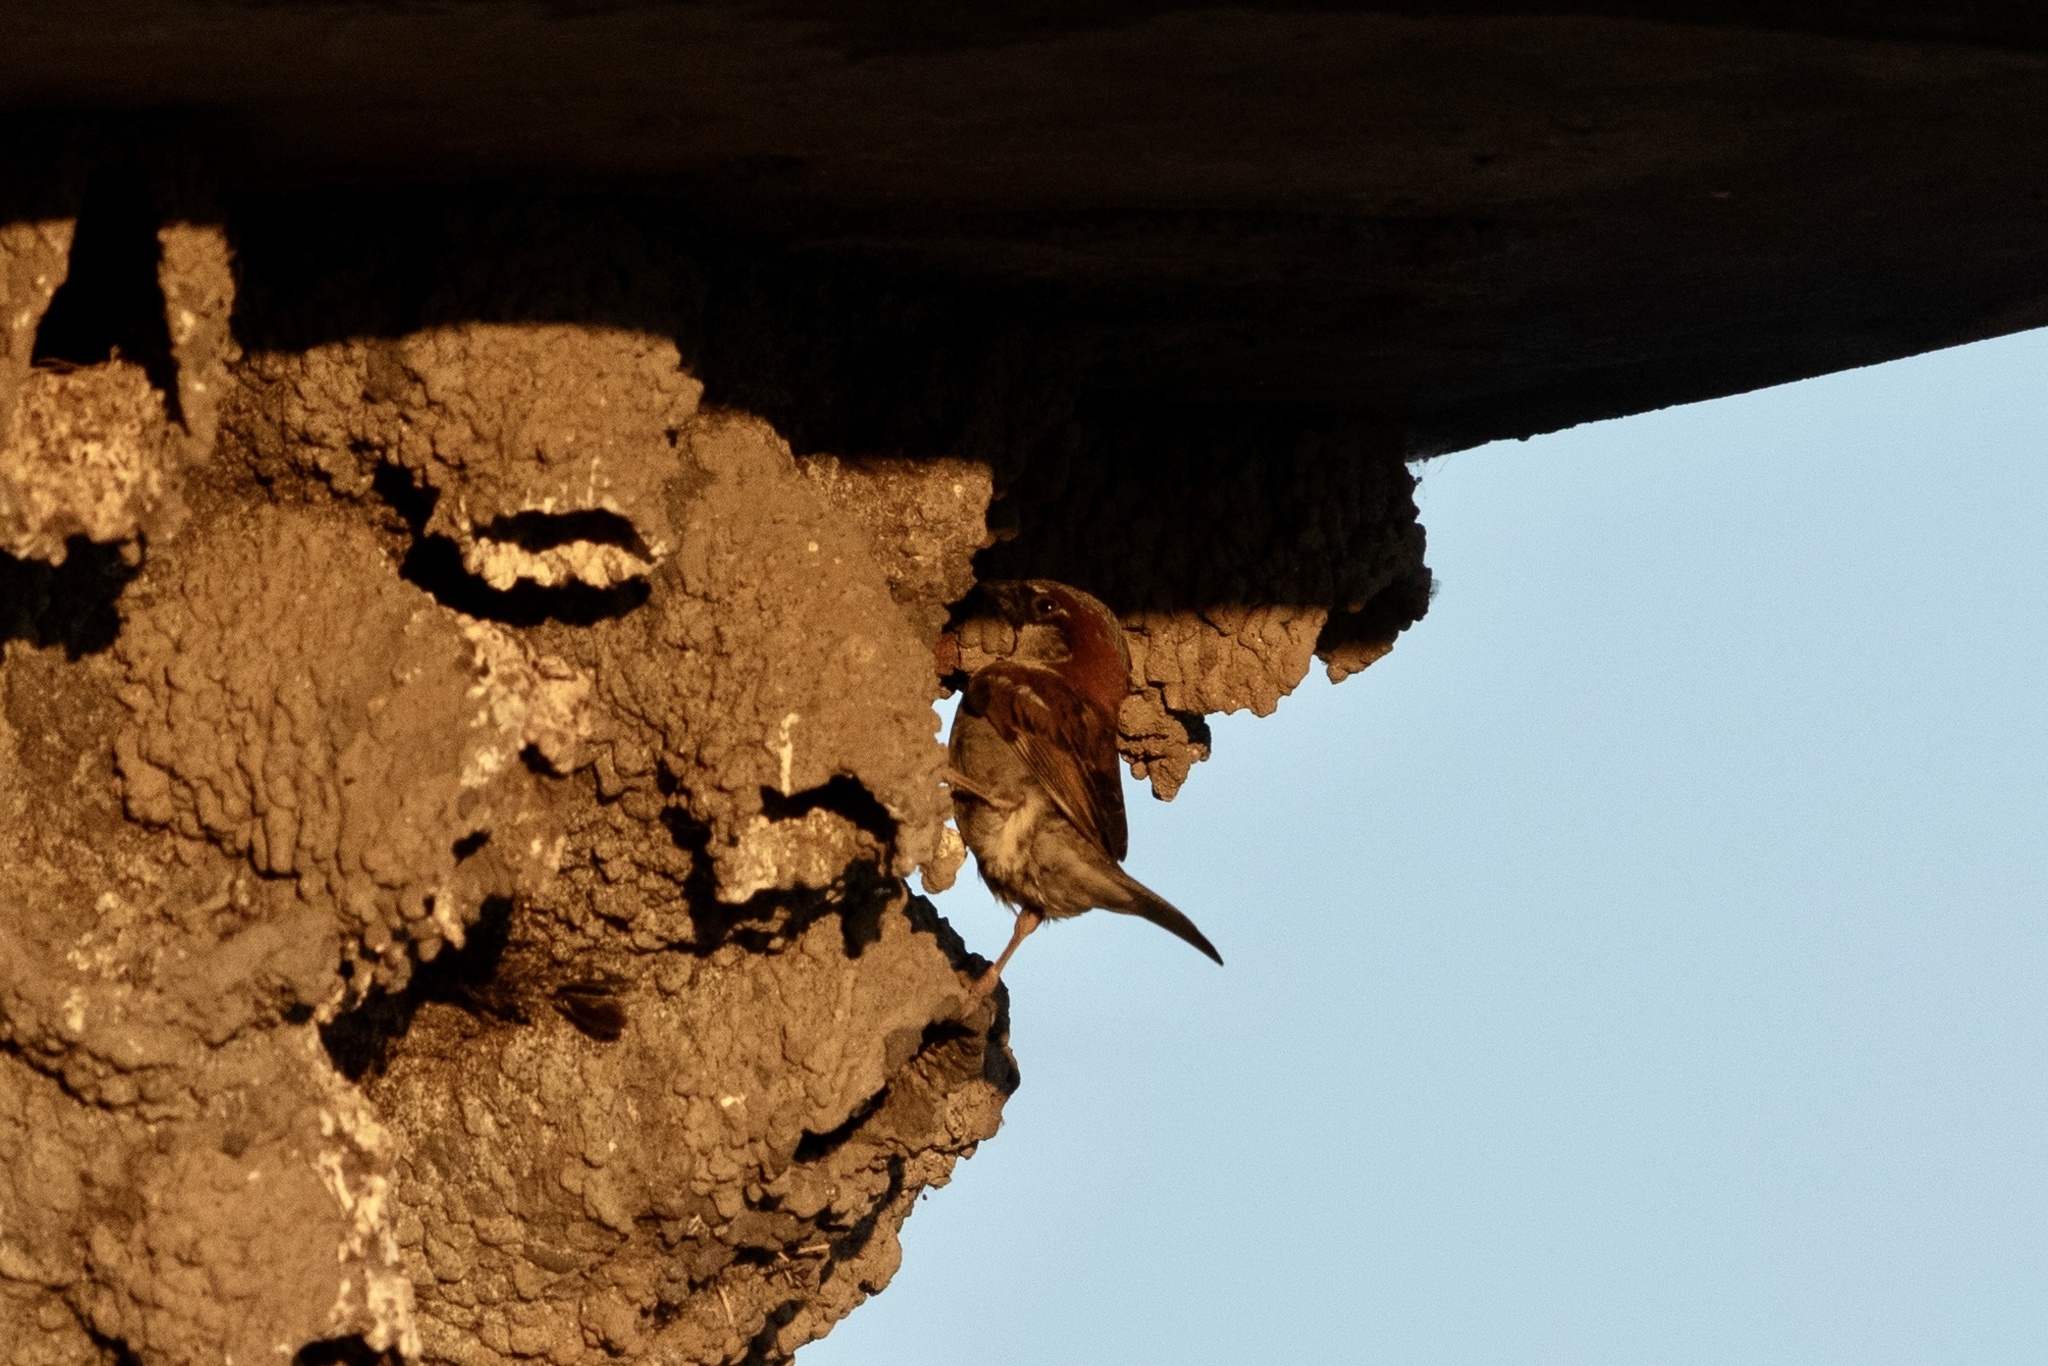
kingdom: Animalia
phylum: Chordata
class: Aves
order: Passeriformes
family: Passeridae
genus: Passer
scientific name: Passer domesticus
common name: House sparrow
